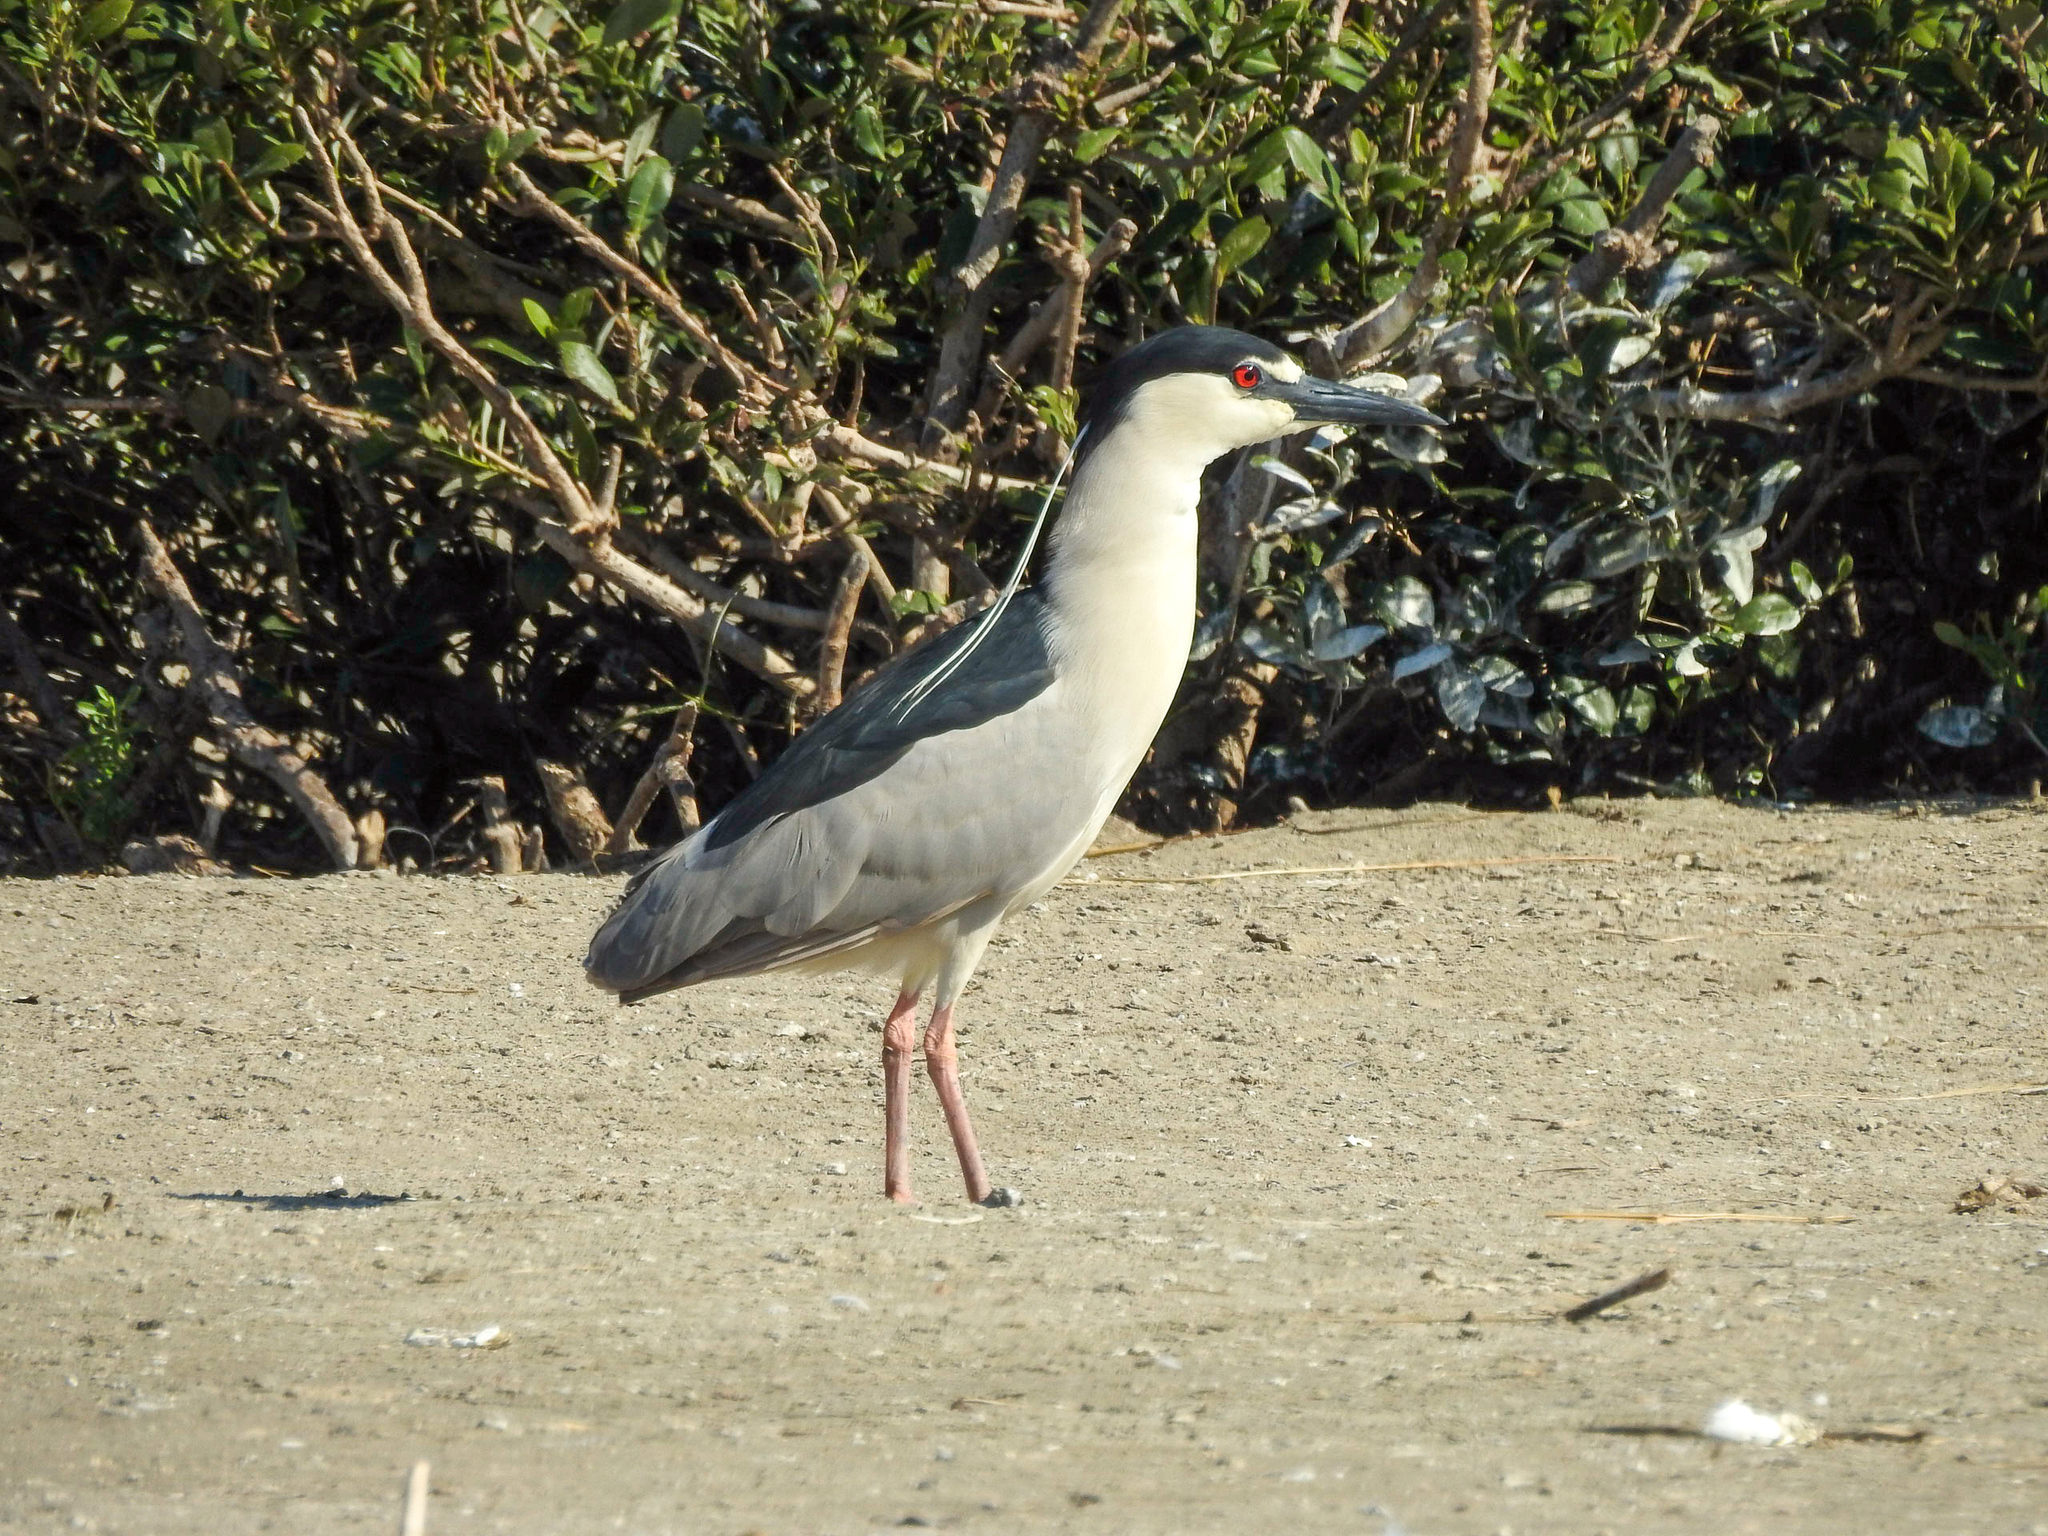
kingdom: Animalia
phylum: Chordata
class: Aves
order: Pelecaniformes
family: Ardeidae
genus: Nycticorax
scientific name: Nycticorax nycticorax
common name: Black-crowned night heron
